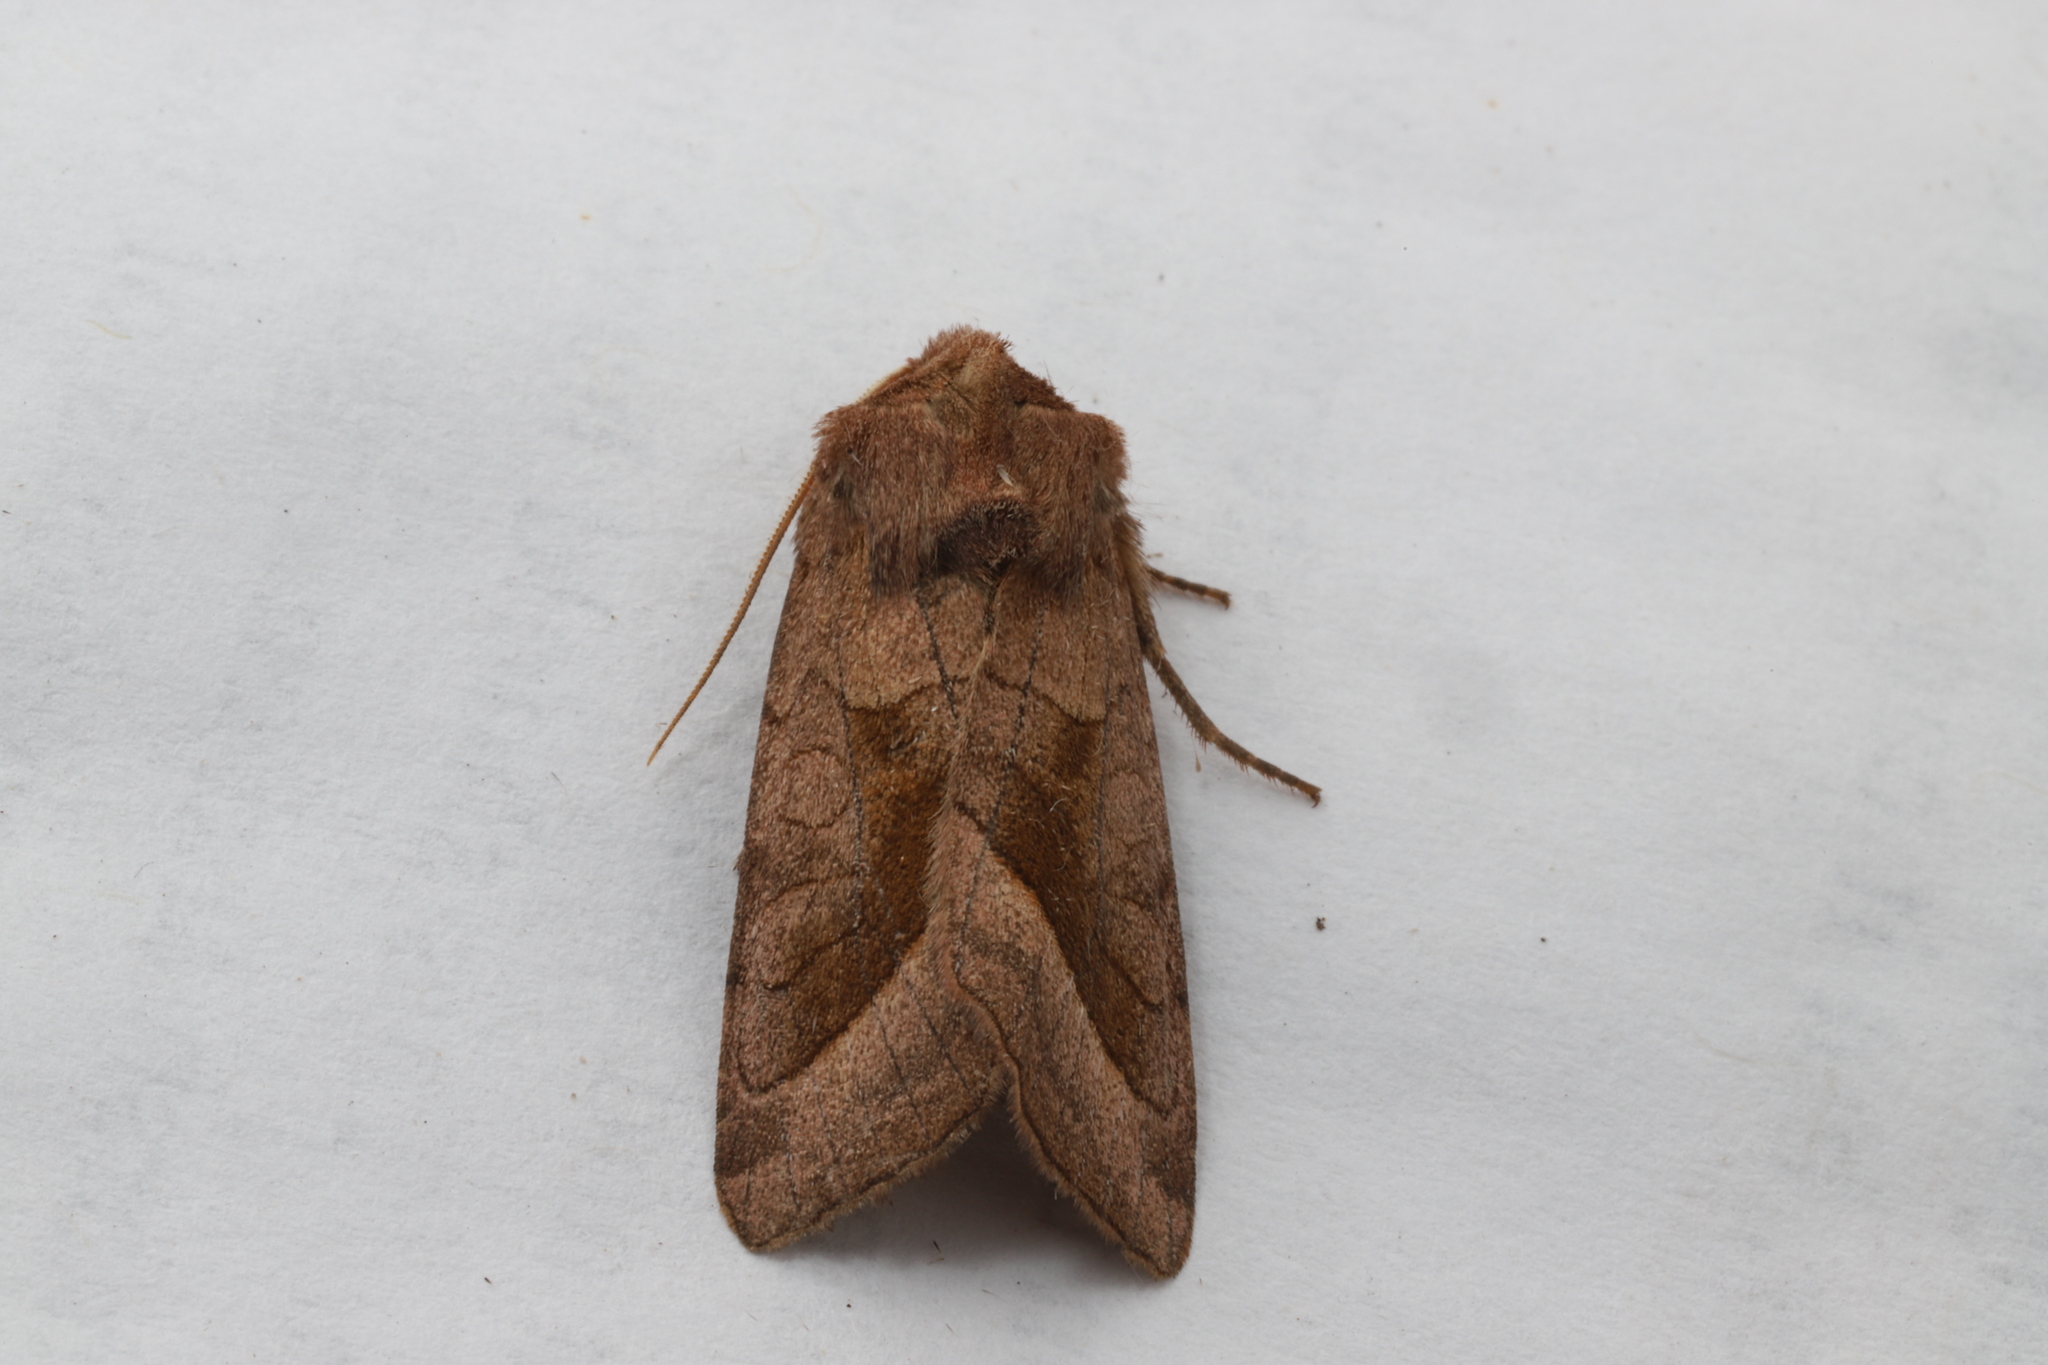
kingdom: Animalia
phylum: Arthropoda
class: Insecta
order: Lepidoptera
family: Noctuidae
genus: Hydraecia
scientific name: Hydraecia micacea
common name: Rosy rustic
